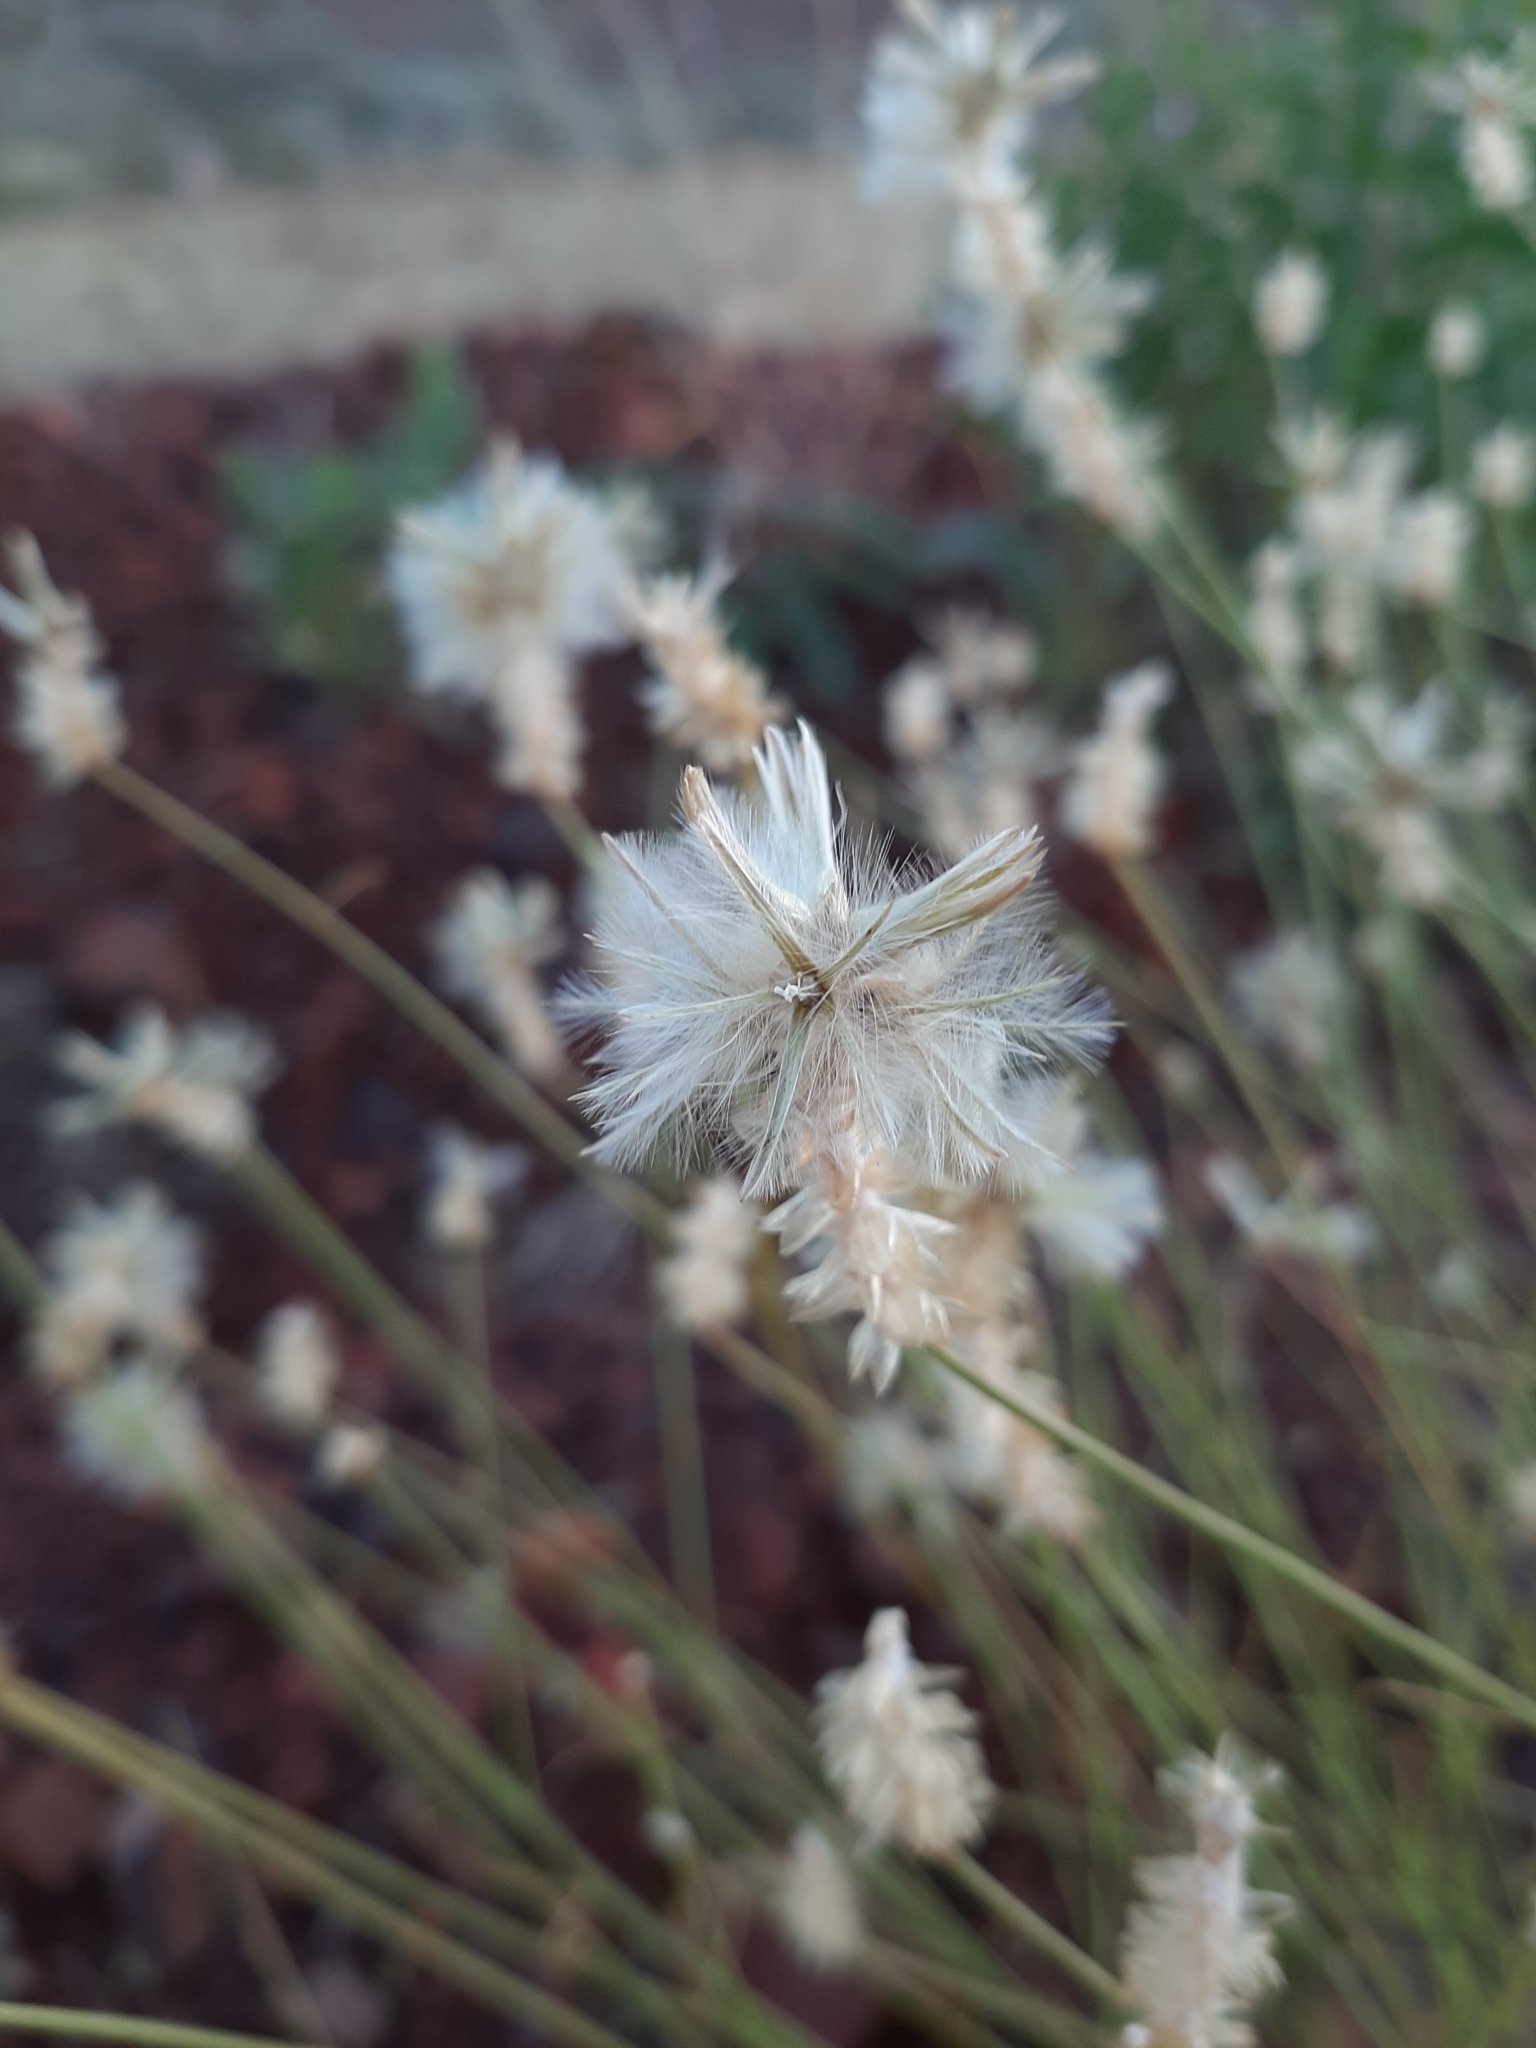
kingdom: Plantae
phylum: Tracheophyta
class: Magnoliopsida
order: Caryophyllales
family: Amaranthaceae
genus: Ptilotus
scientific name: Ptilotus fusiformis
